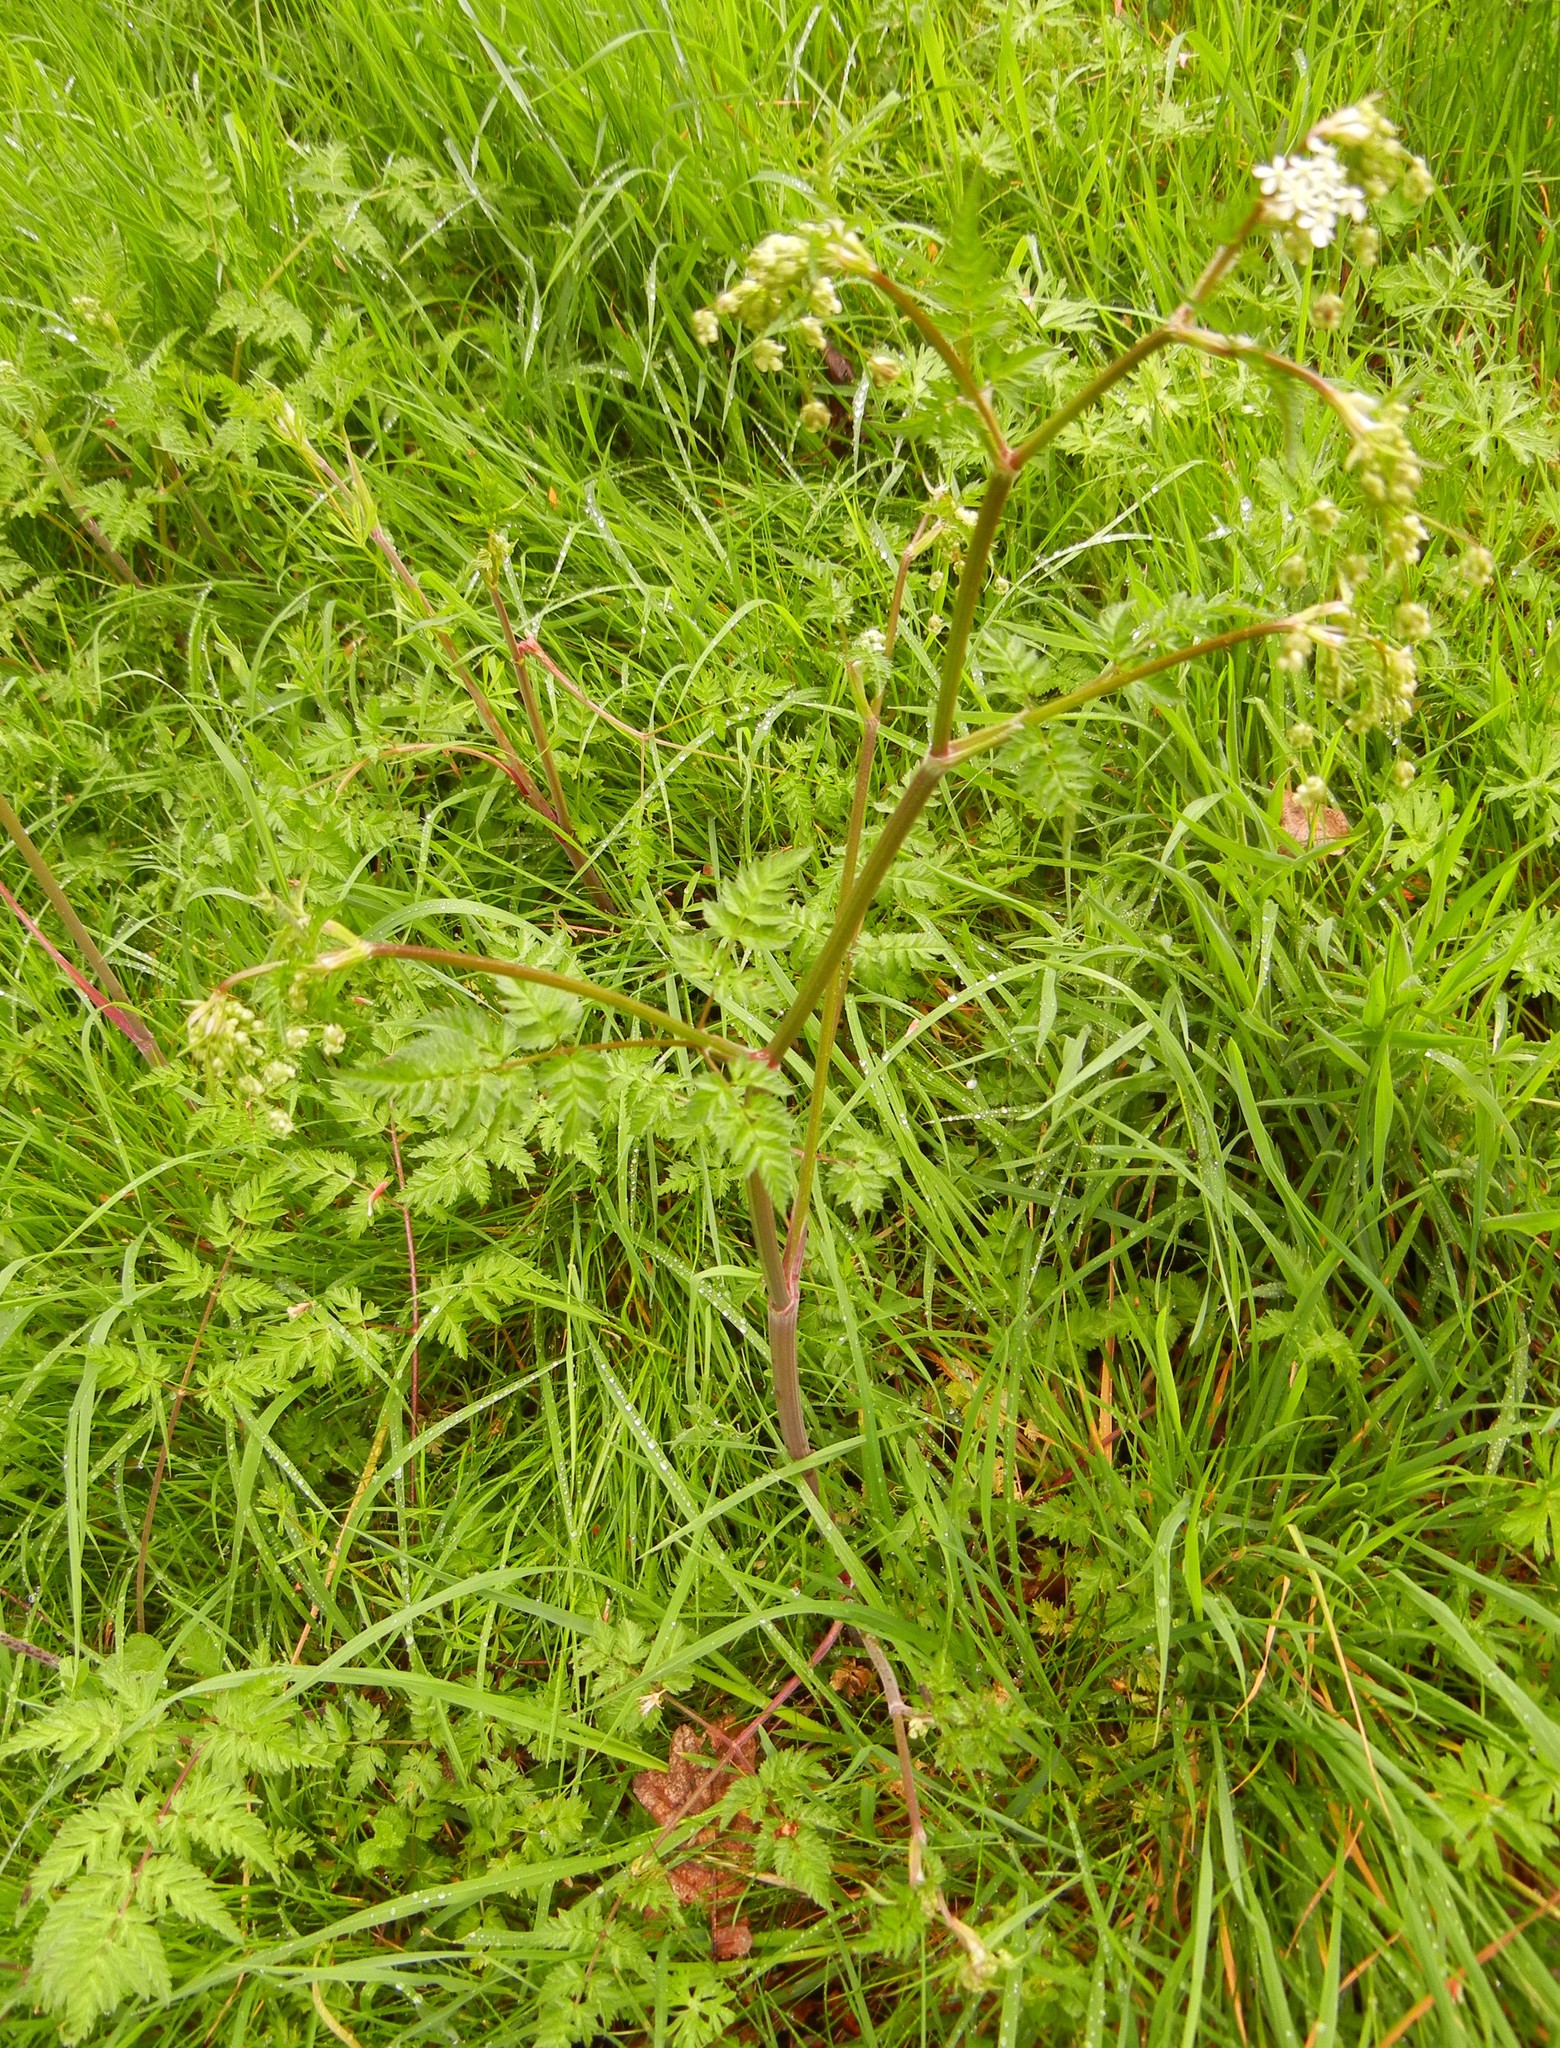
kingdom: Plantae
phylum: Tracheophyta
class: Magnoliopsida
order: Apiales
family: Apiaceae
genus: Anthriscus
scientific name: Anthriscus sylvestris
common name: Cow parsley
